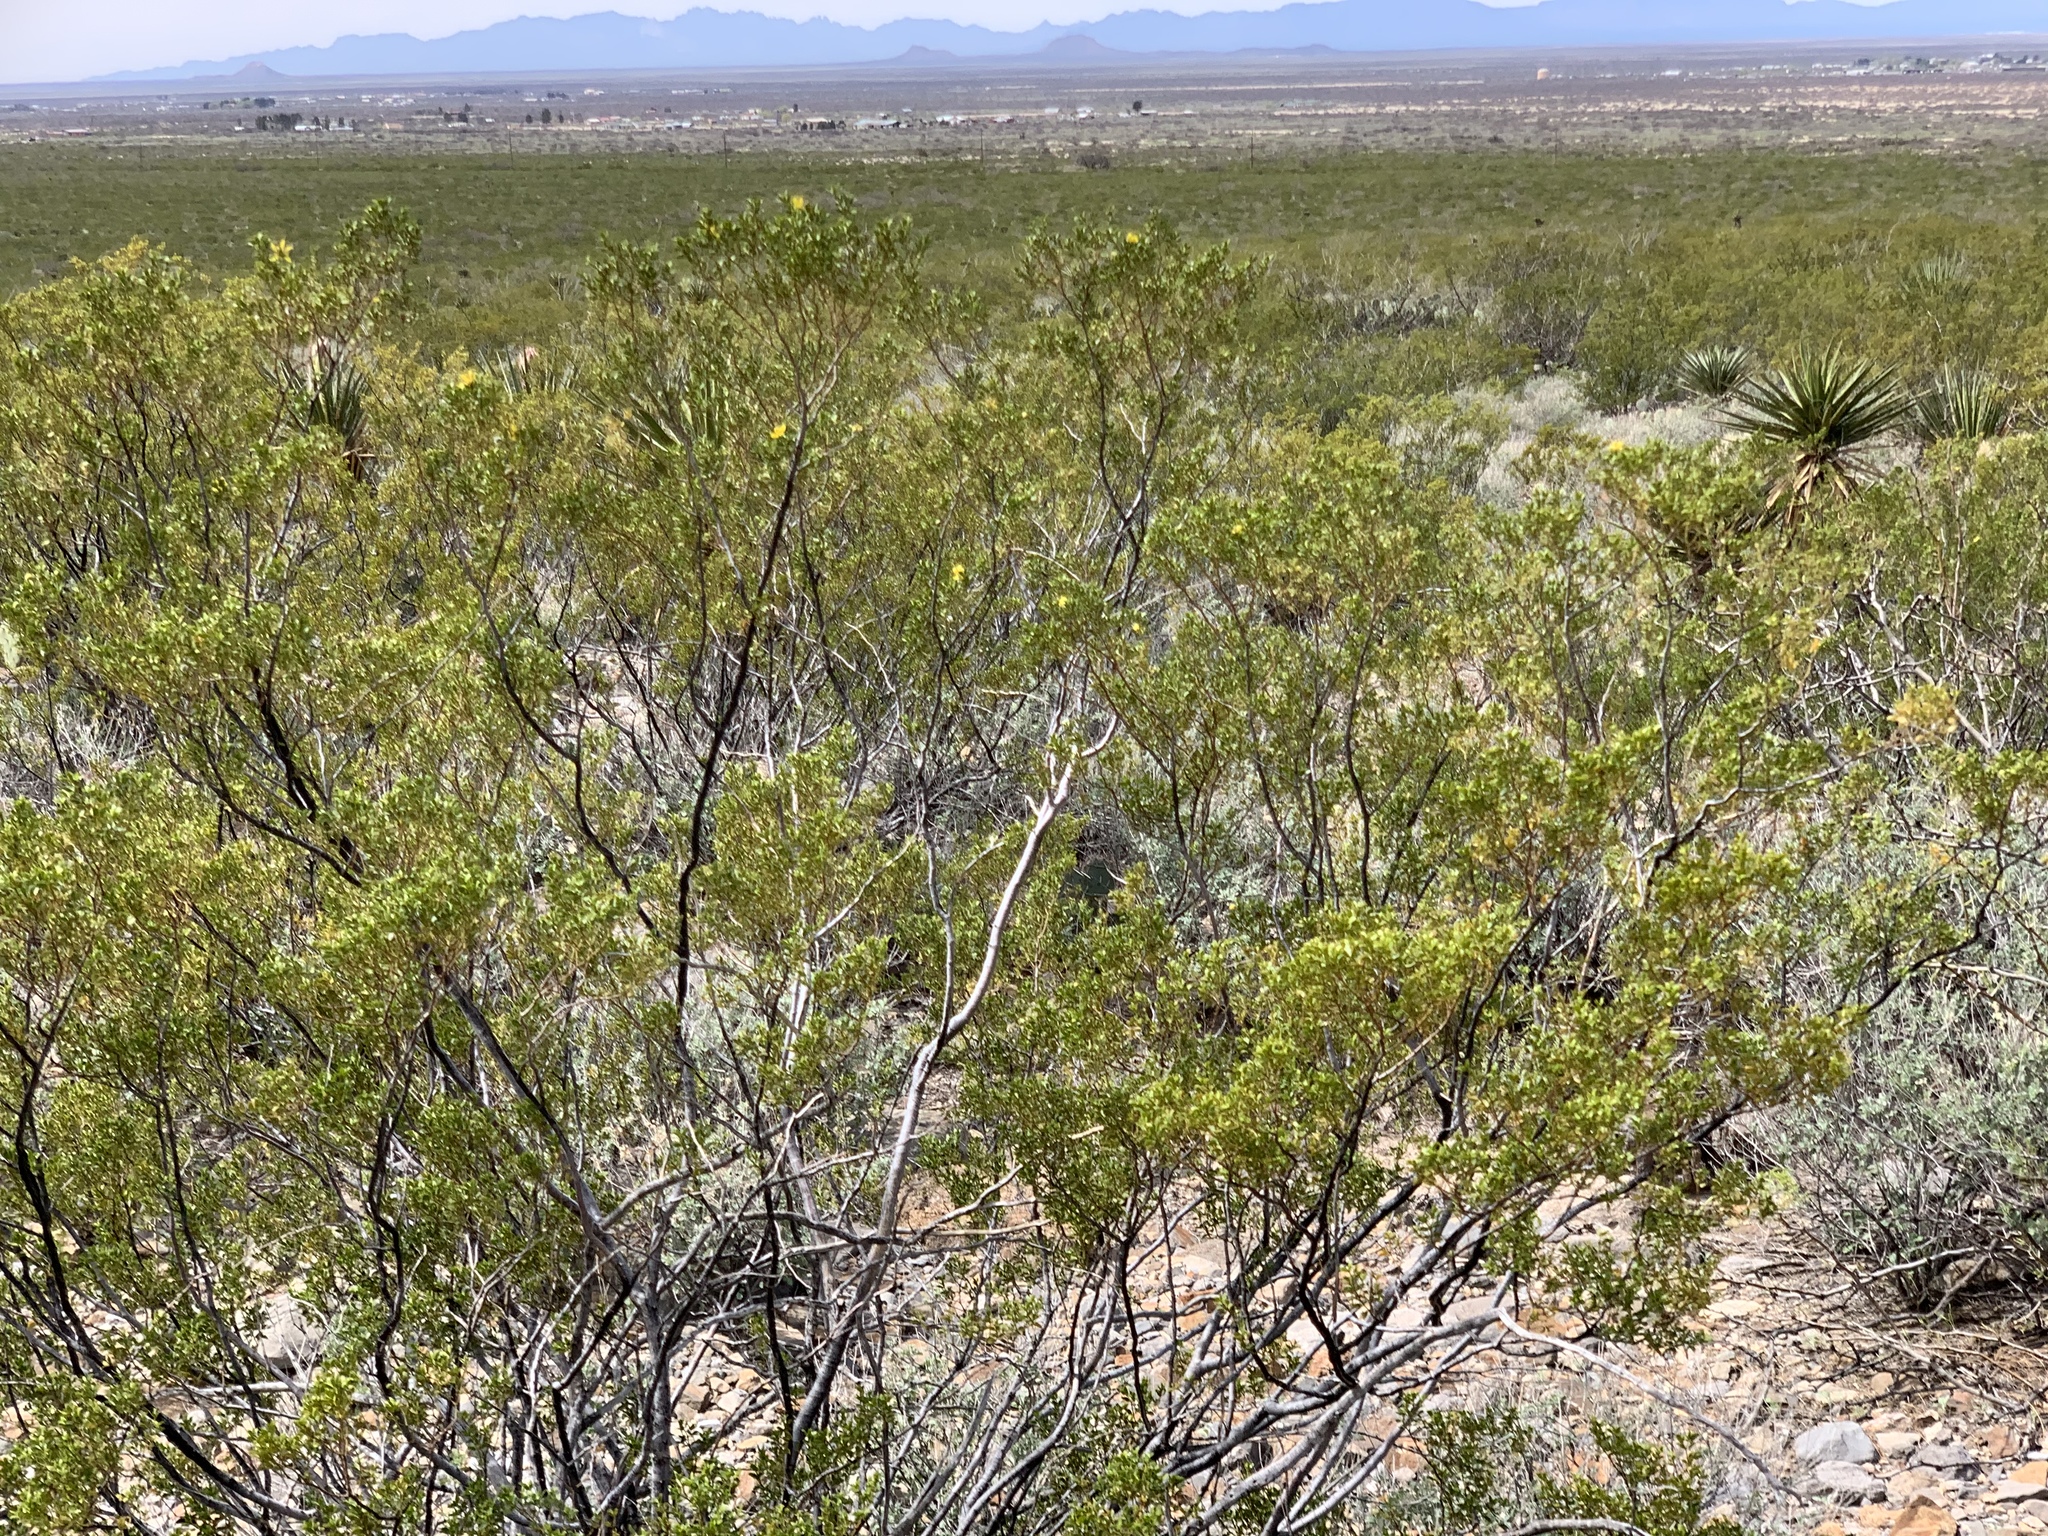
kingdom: Plantae
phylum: Tracheophyta
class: Magnoliopsida
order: Zygophyllales
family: Zygophyllaceae
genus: Larrea
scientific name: Larrea tridentata
